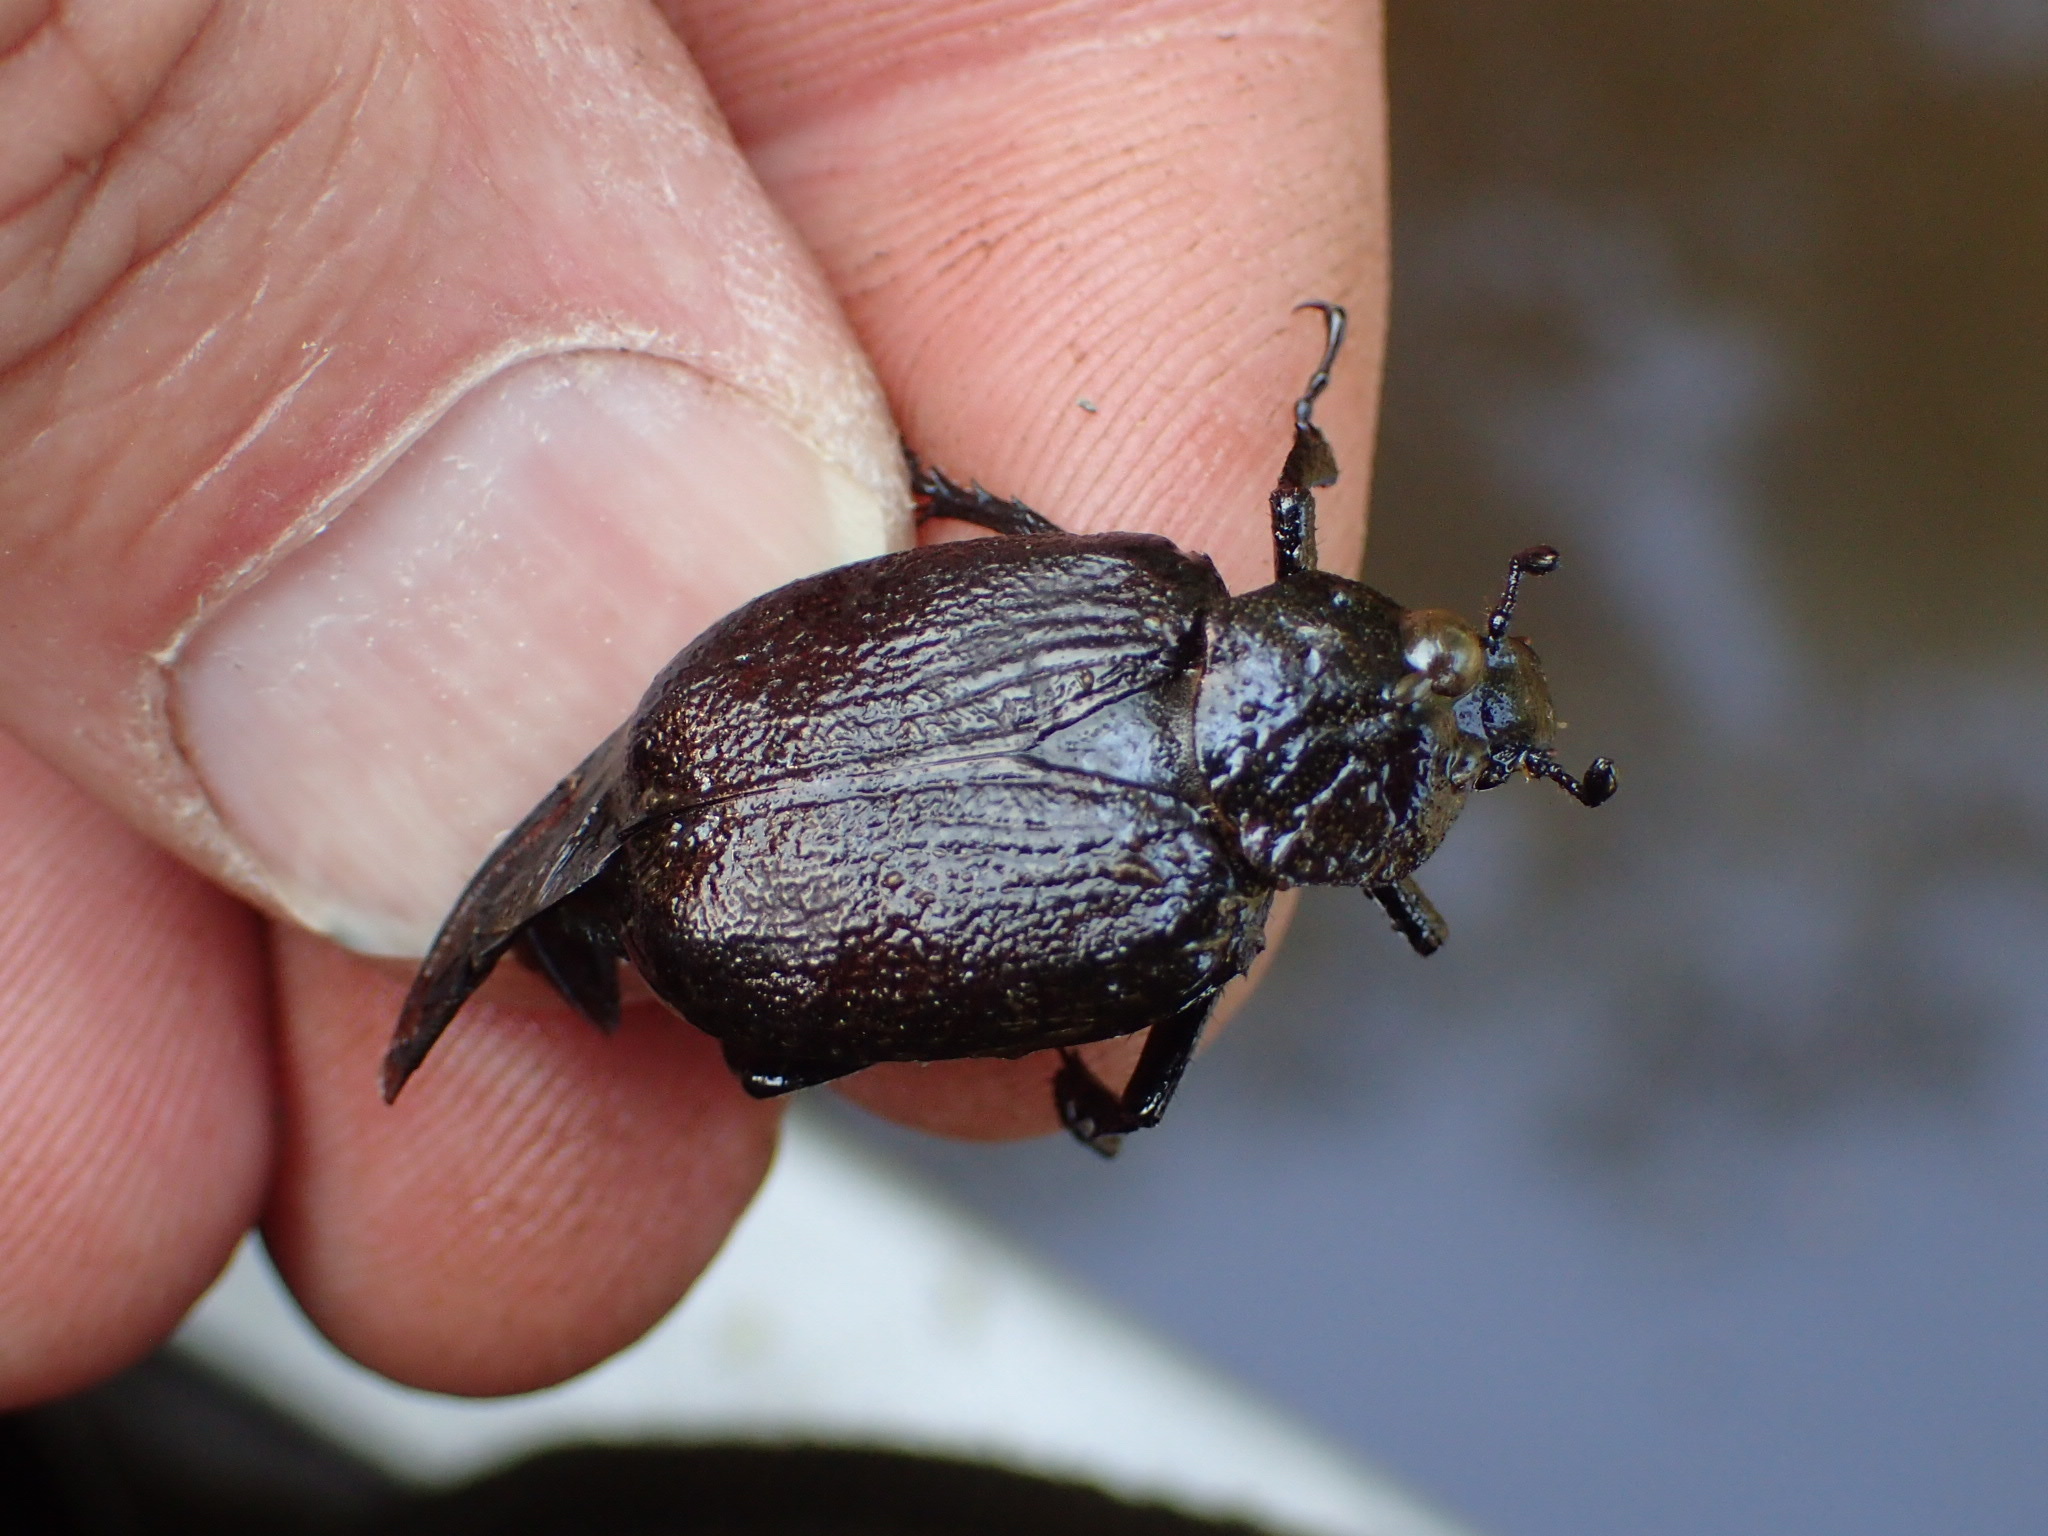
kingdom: Animalia
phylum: Arthropoda
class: Insecta
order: Coleoptera
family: Scarabaeidae
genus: Osmoderma
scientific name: Osmoderma scabra
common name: Rough hermit beetle
